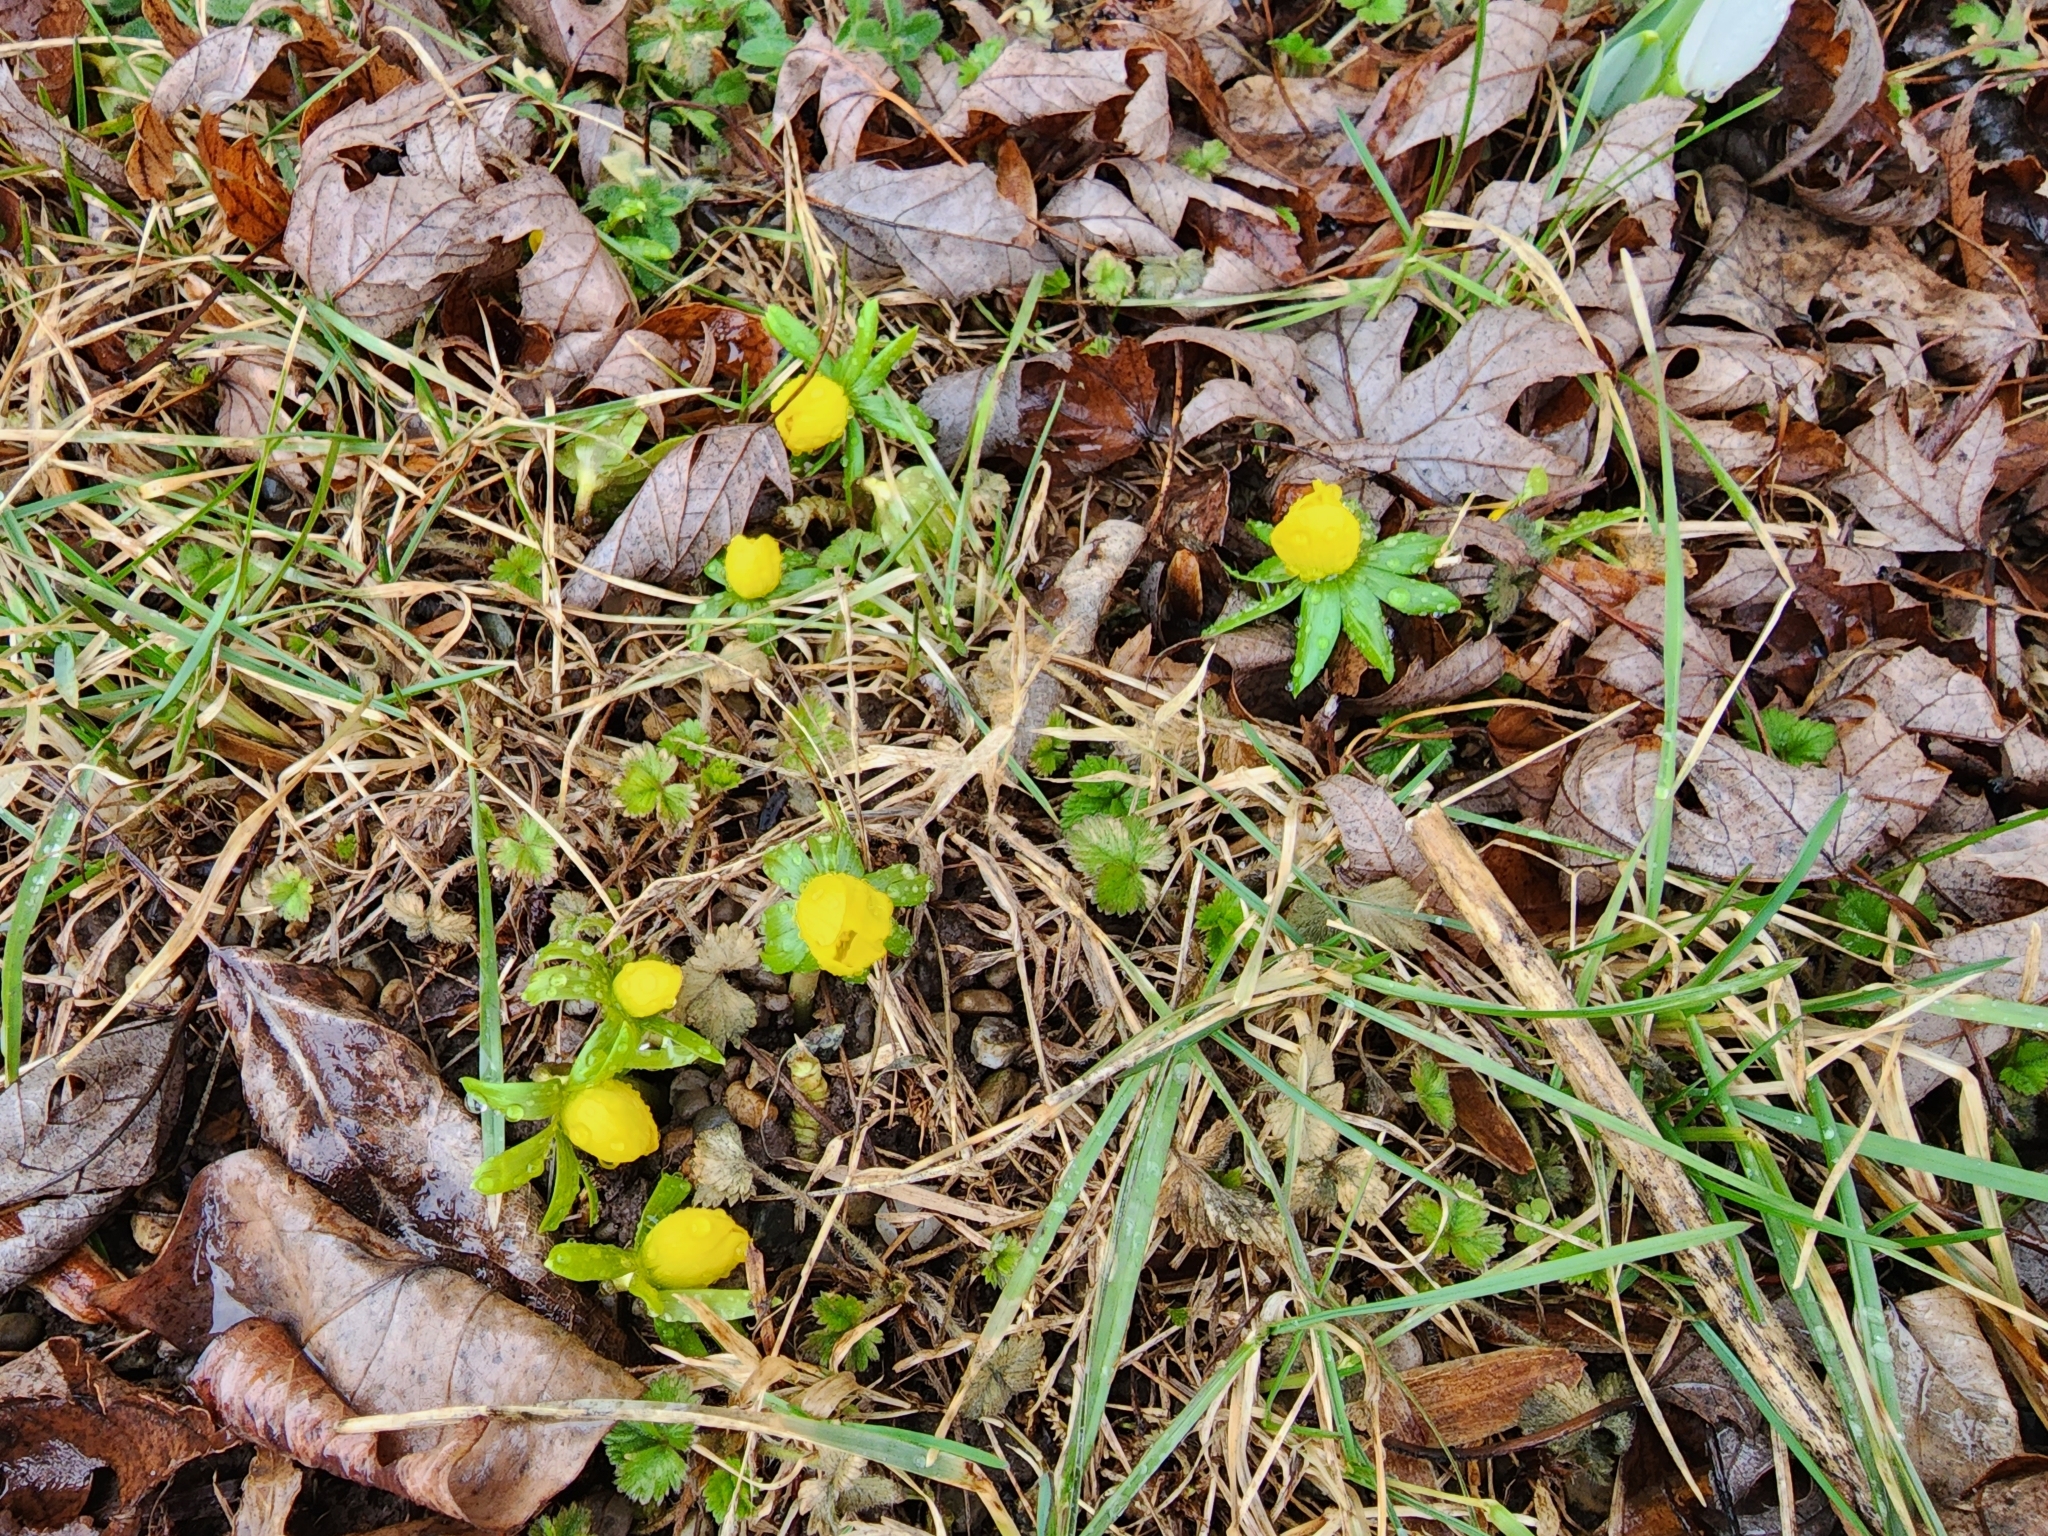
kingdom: Plantae
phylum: Tracheophyta
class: Magnoliopsida
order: Ranunculales
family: Ranunculaceae
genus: Eranthis
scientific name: Eranthis hyemalis
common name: Winter aconite
